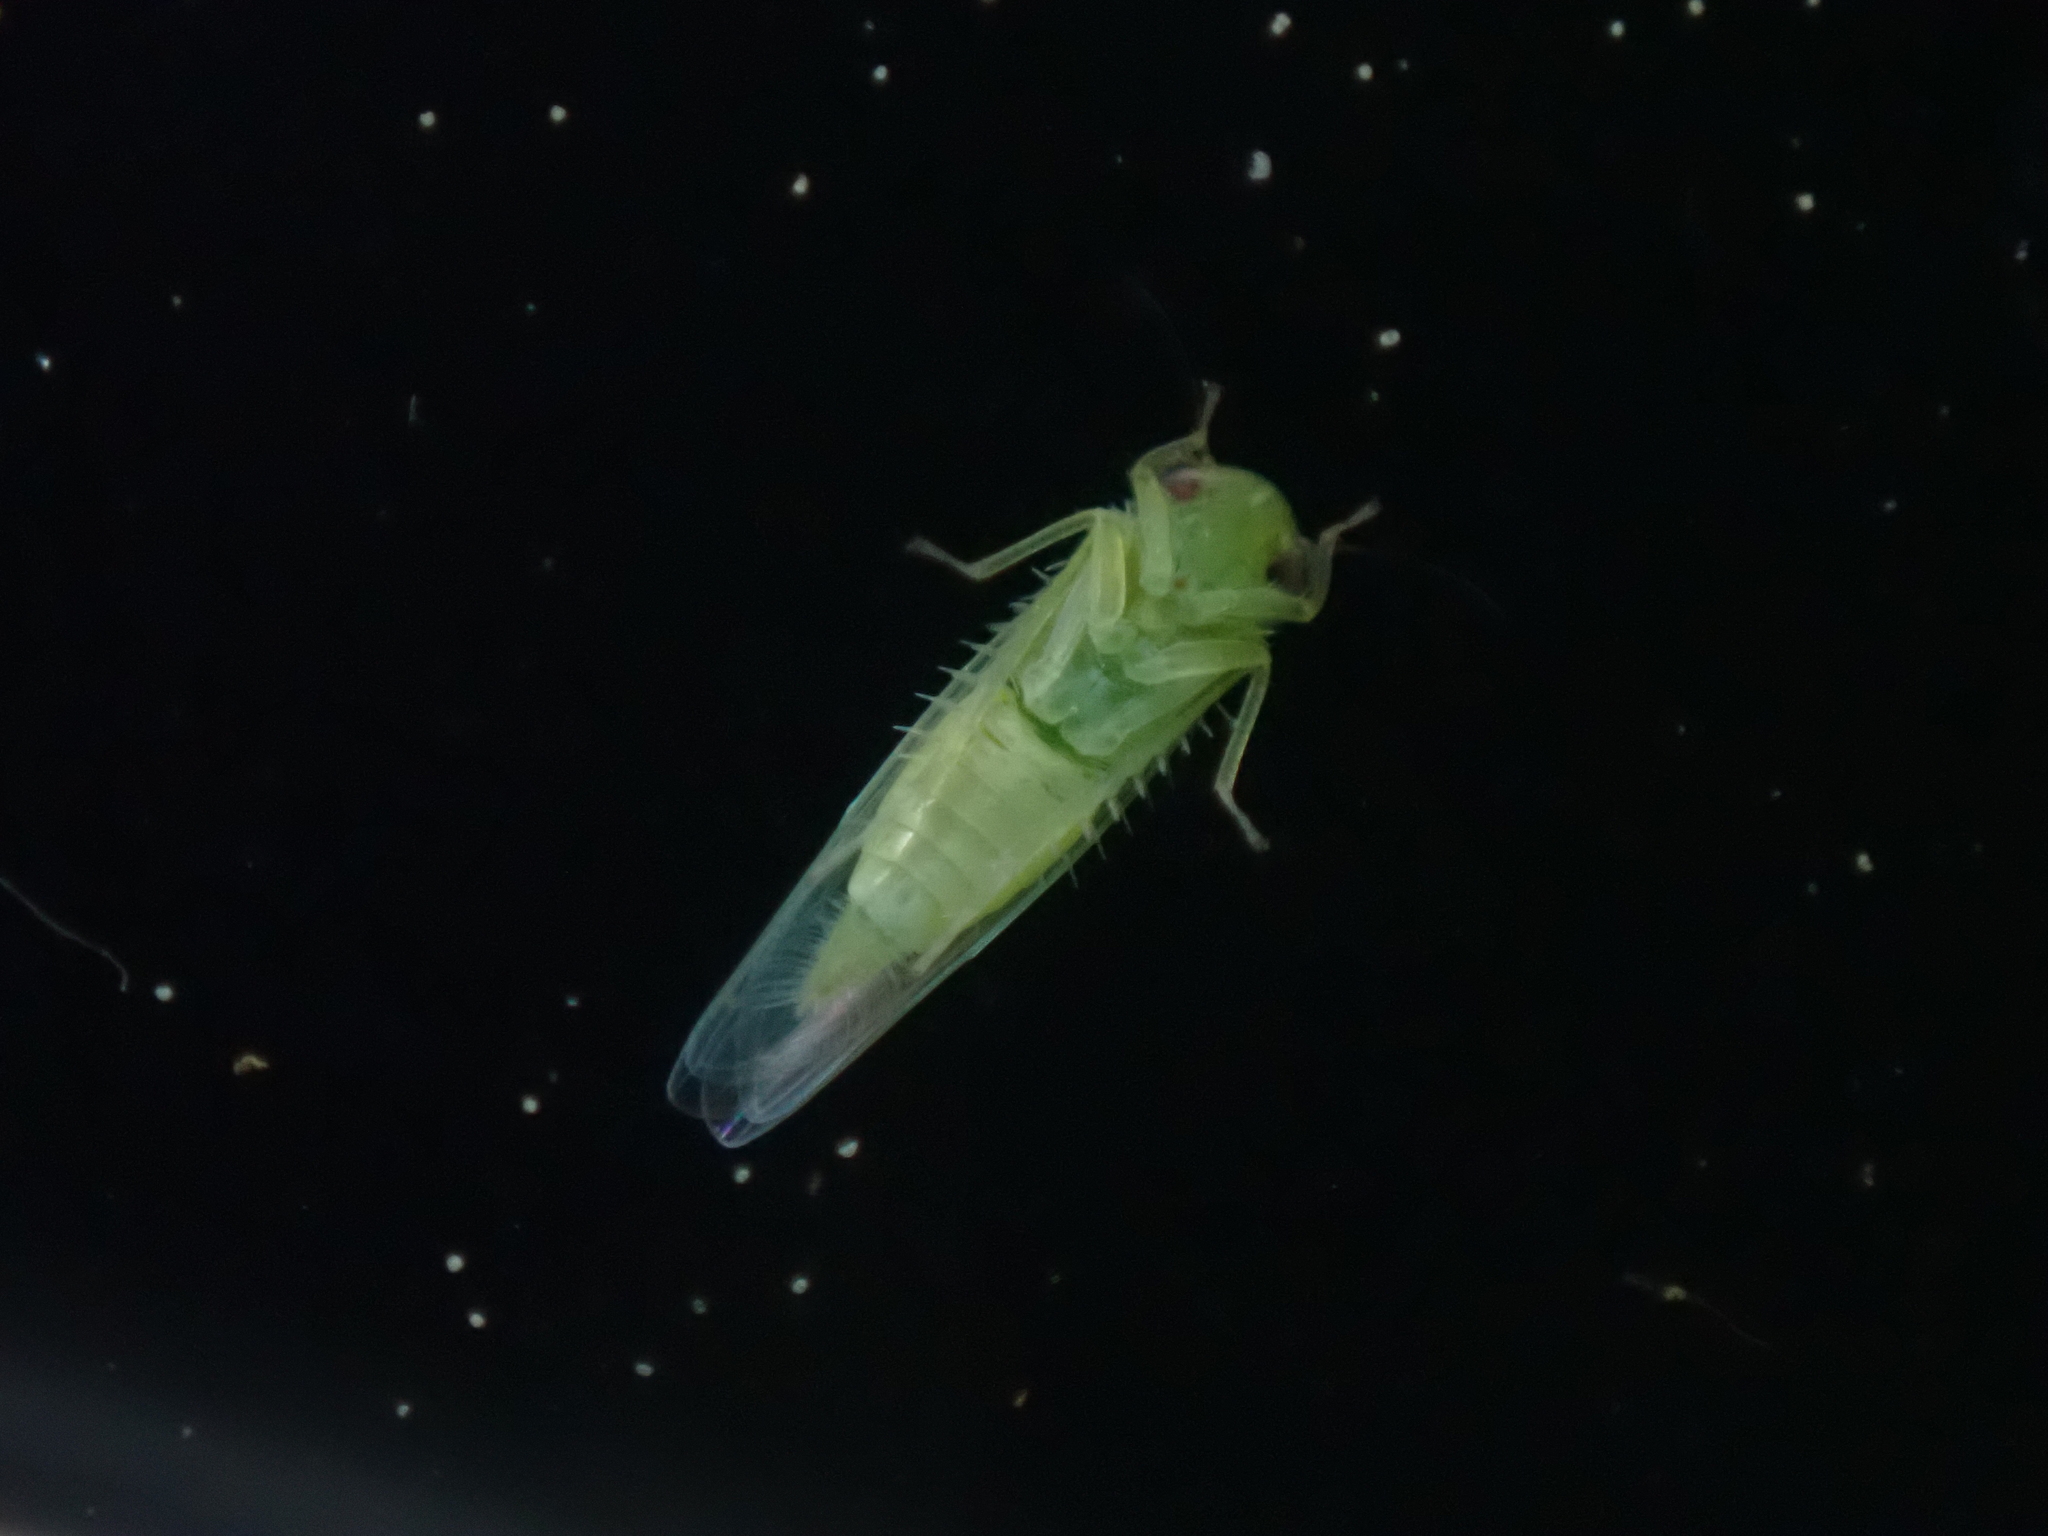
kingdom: Animalia
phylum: Arthropoda
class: Insecta
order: Hemiptera
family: Cicadellidae
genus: Empoasca
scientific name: Empoasca fabae
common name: Potato leafhopper
